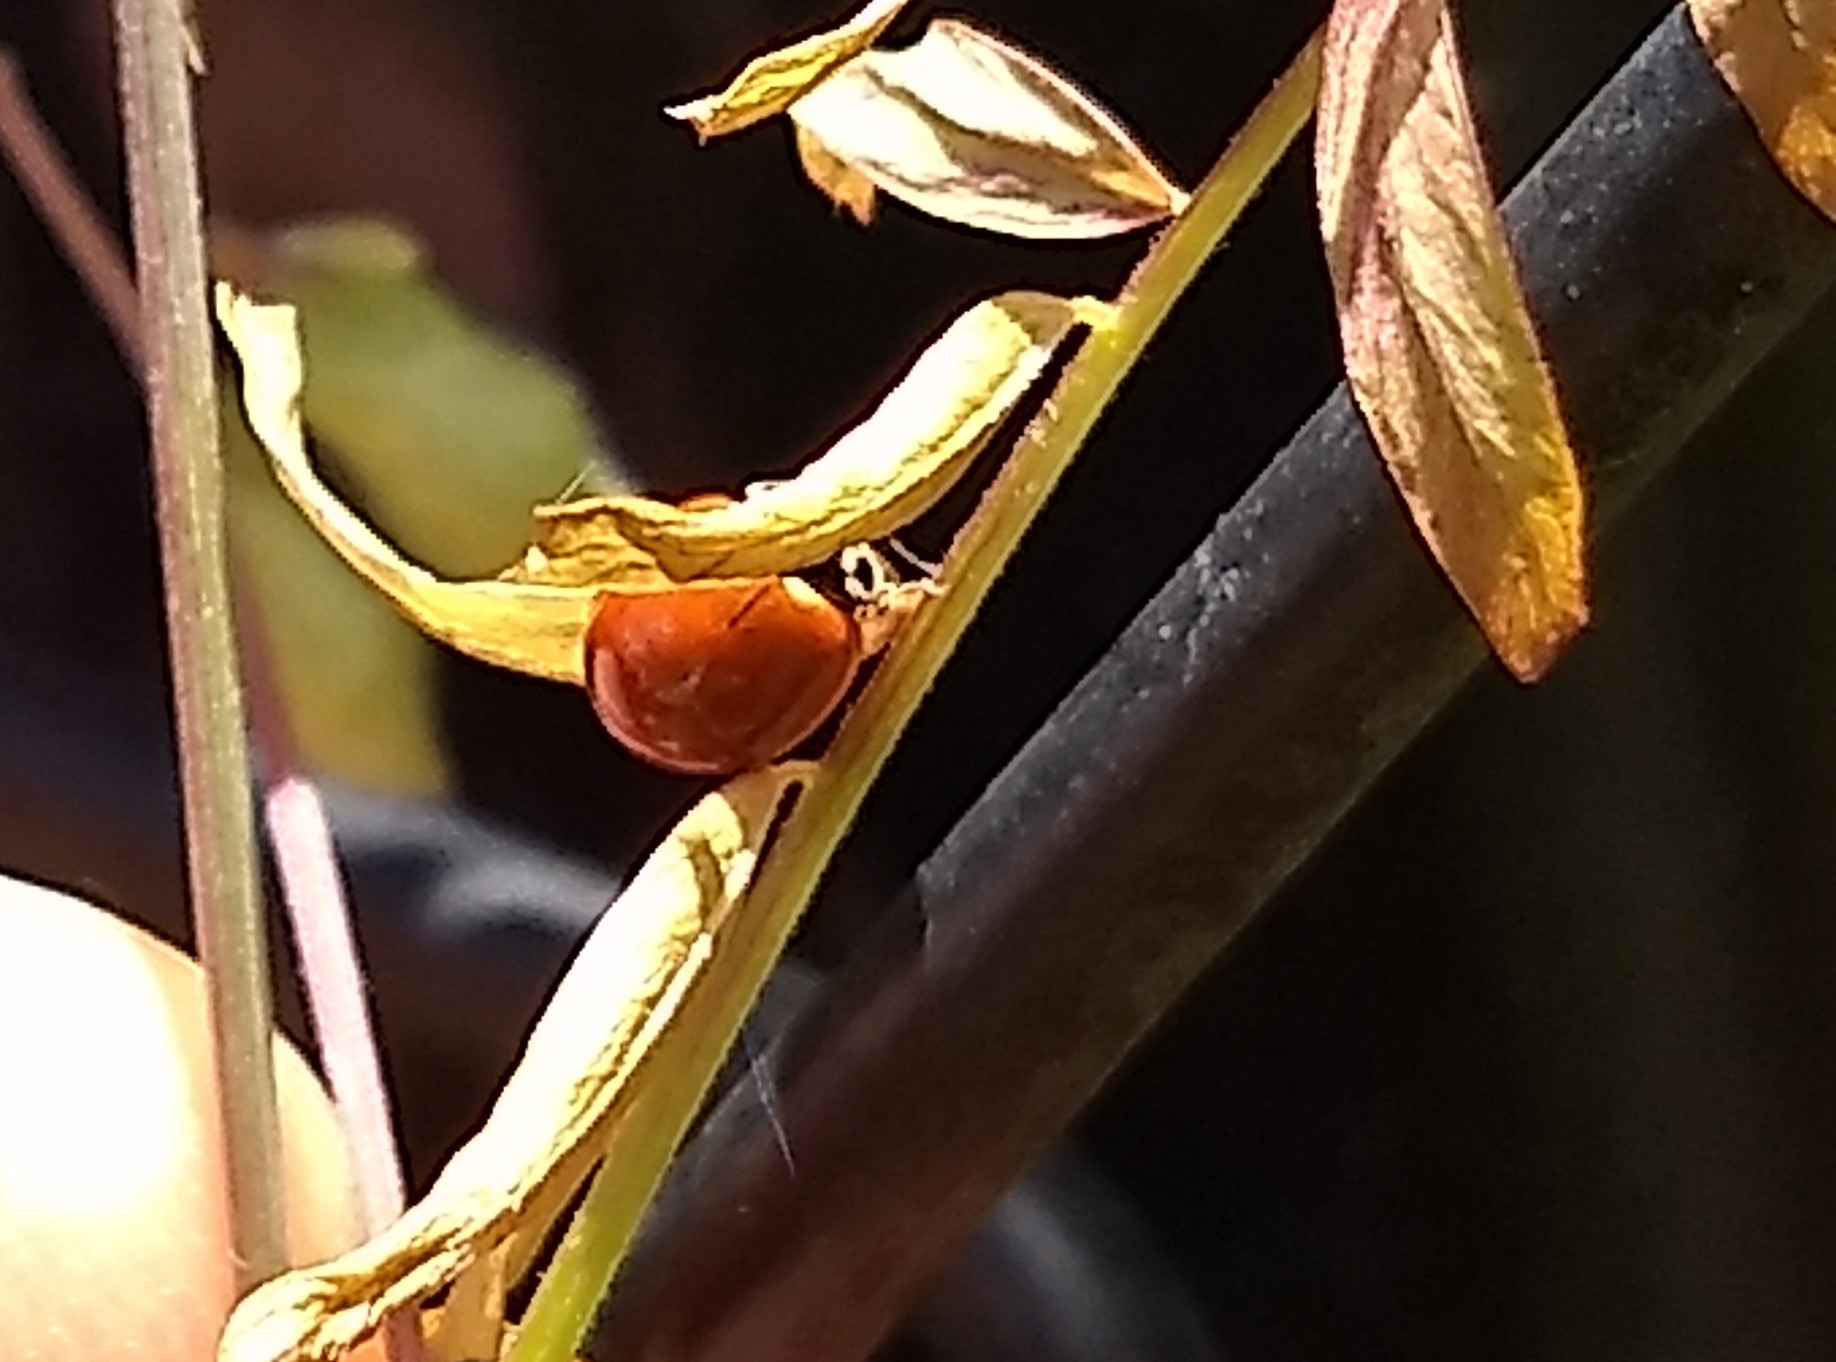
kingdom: Animalia
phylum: Arthropoda
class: Insecta
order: Coleoptera
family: Coccinellidae
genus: Cycloneda
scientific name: Cycloneda polita
